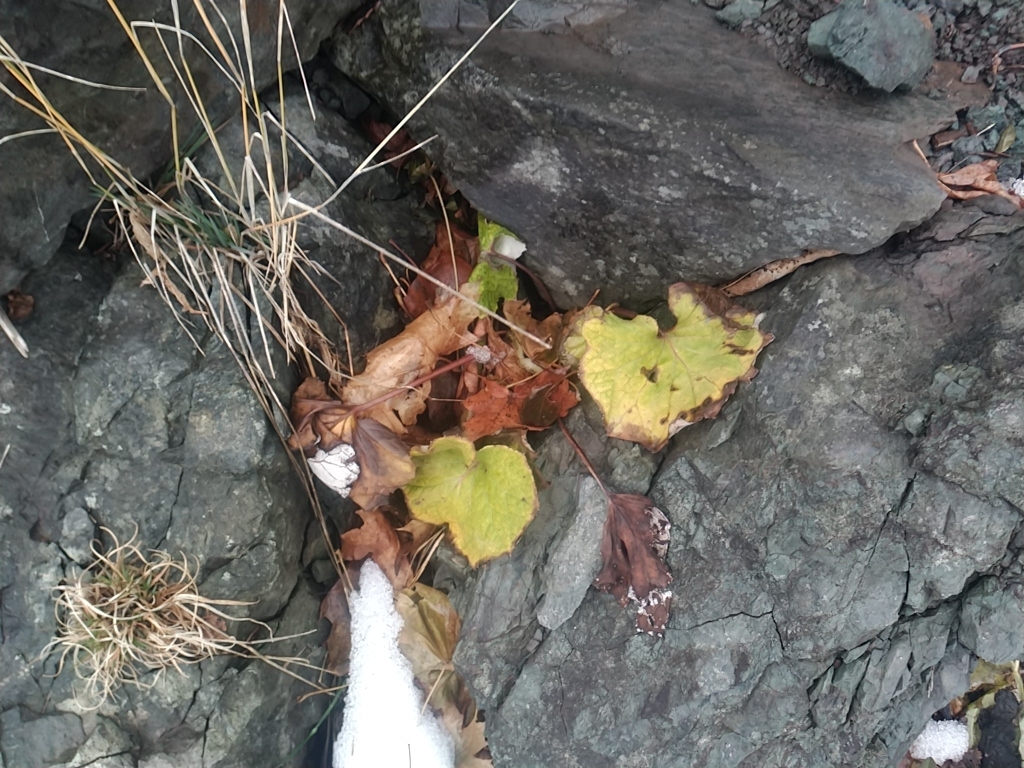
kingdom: Plantae
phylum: Tracheophyta
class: Magnoliopsida
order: Asterales
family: Asteraceae
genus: Tussilago
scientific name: Tussilago farfara
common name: Coltsfoot
